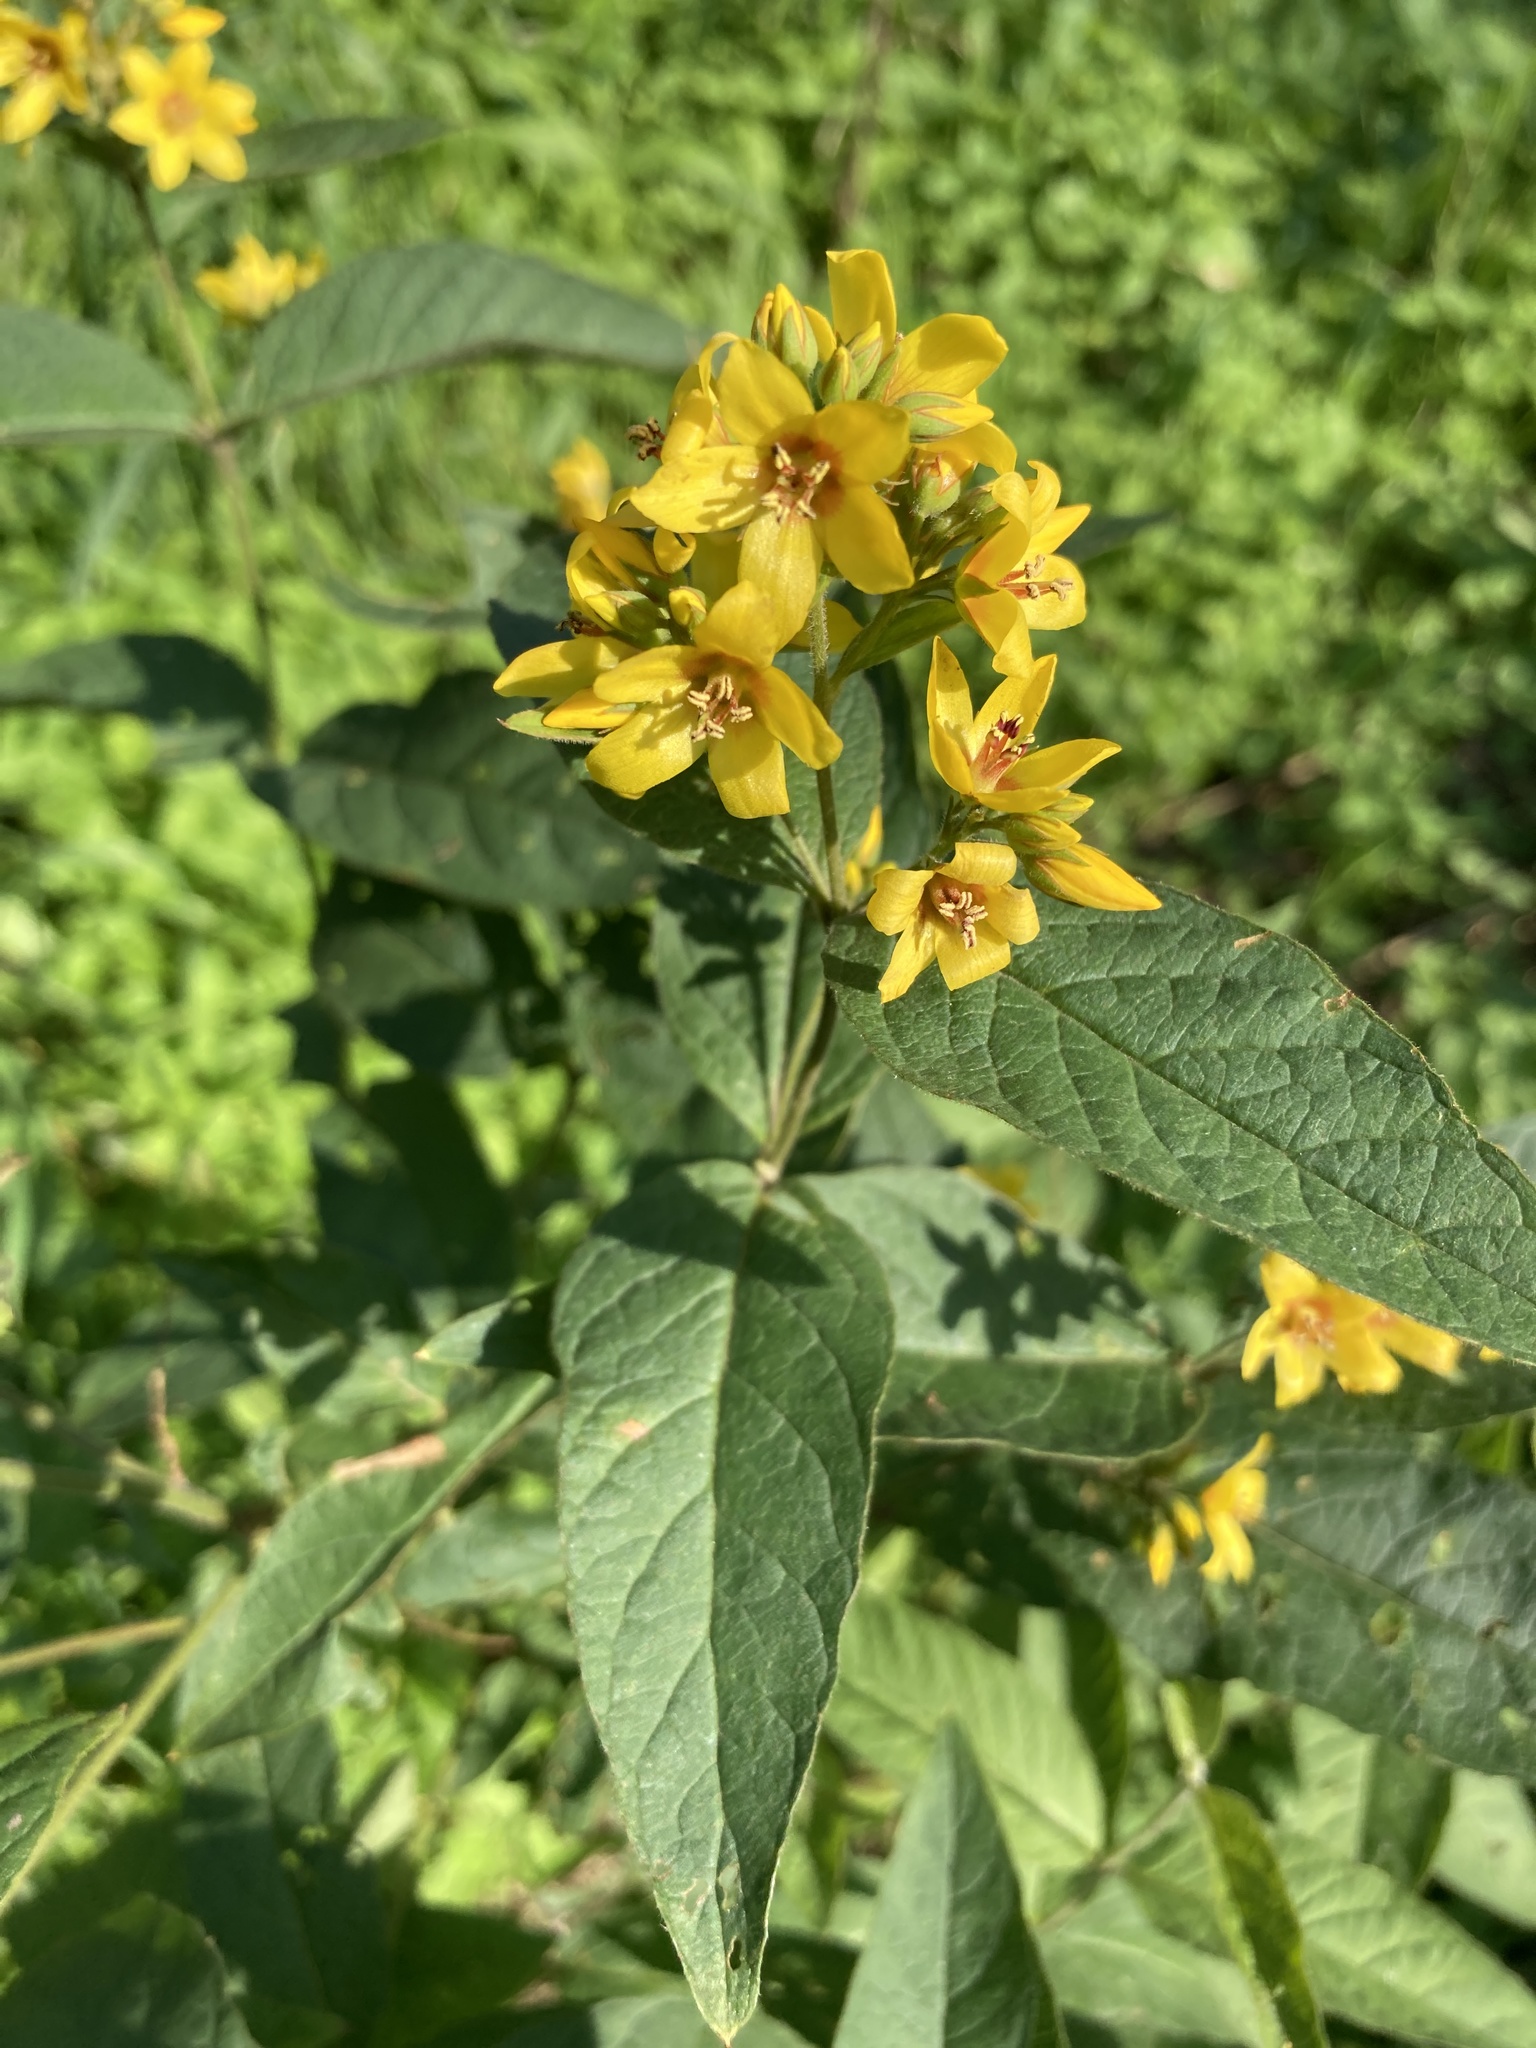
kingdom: Plantae
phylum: Tracheophyta
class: Magnoliopsida
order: Ericales
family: Primulaceae
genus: Lysimachia
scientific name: Lysimachia vulgaris
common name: Yellow loosestrife
